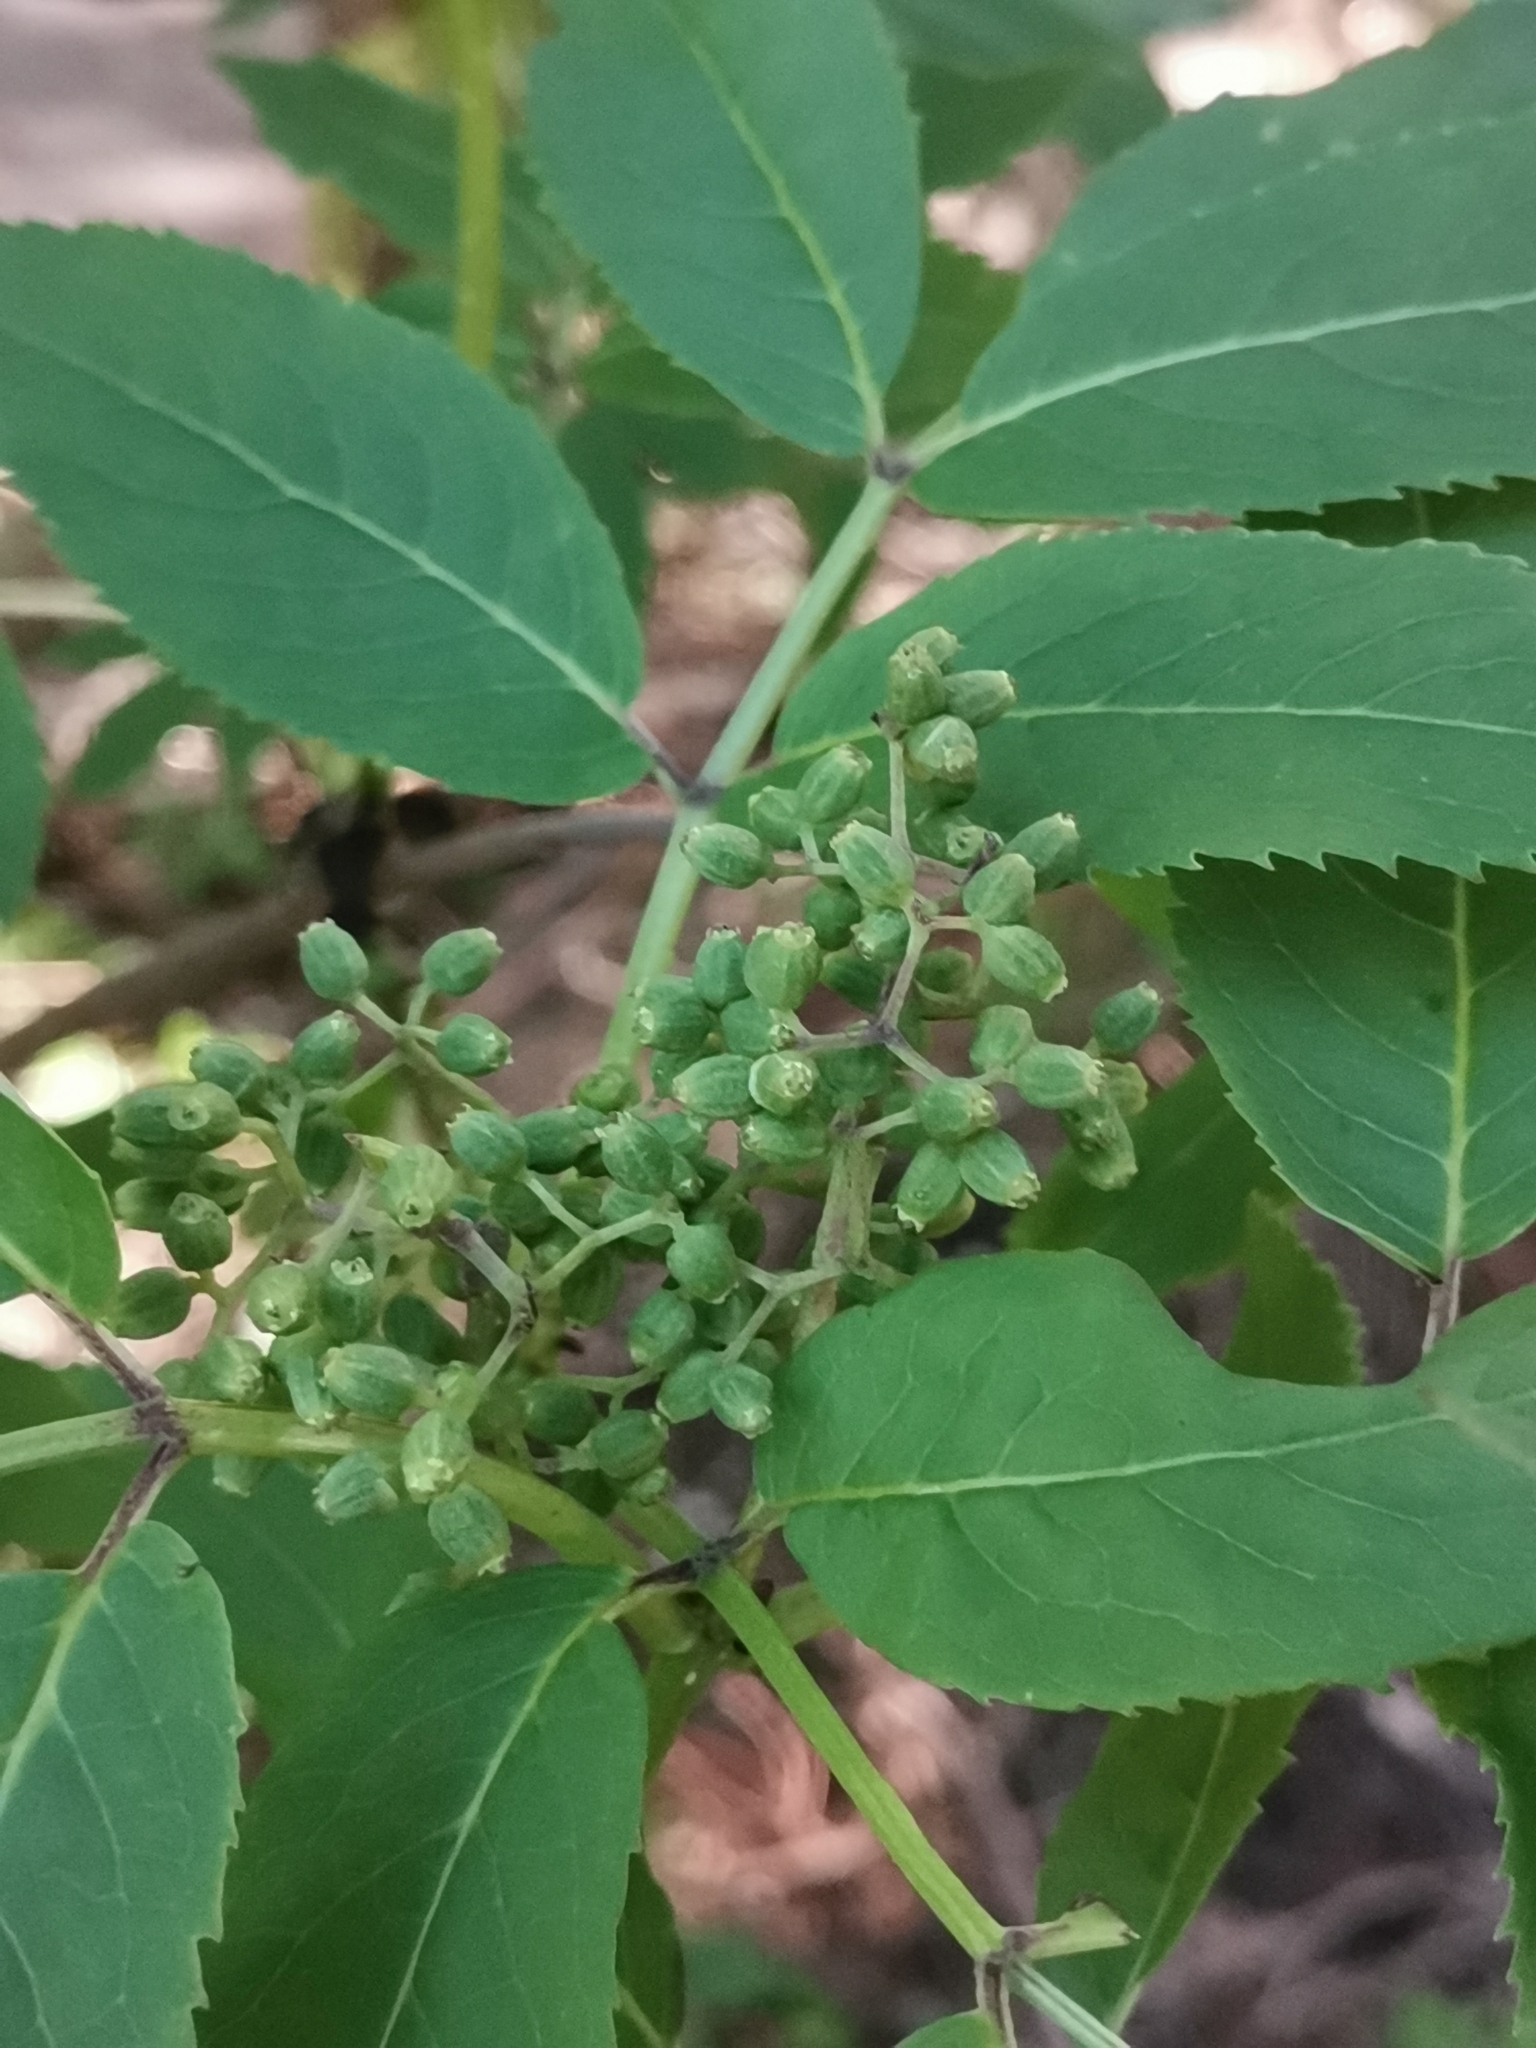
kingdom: Plantae
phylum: Tracheophyta
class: Magnoliopsida
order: Dipsacales
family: Viburnaceae
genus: Sambucus
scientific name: Sambucus racemosa
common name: Red-berried elder
